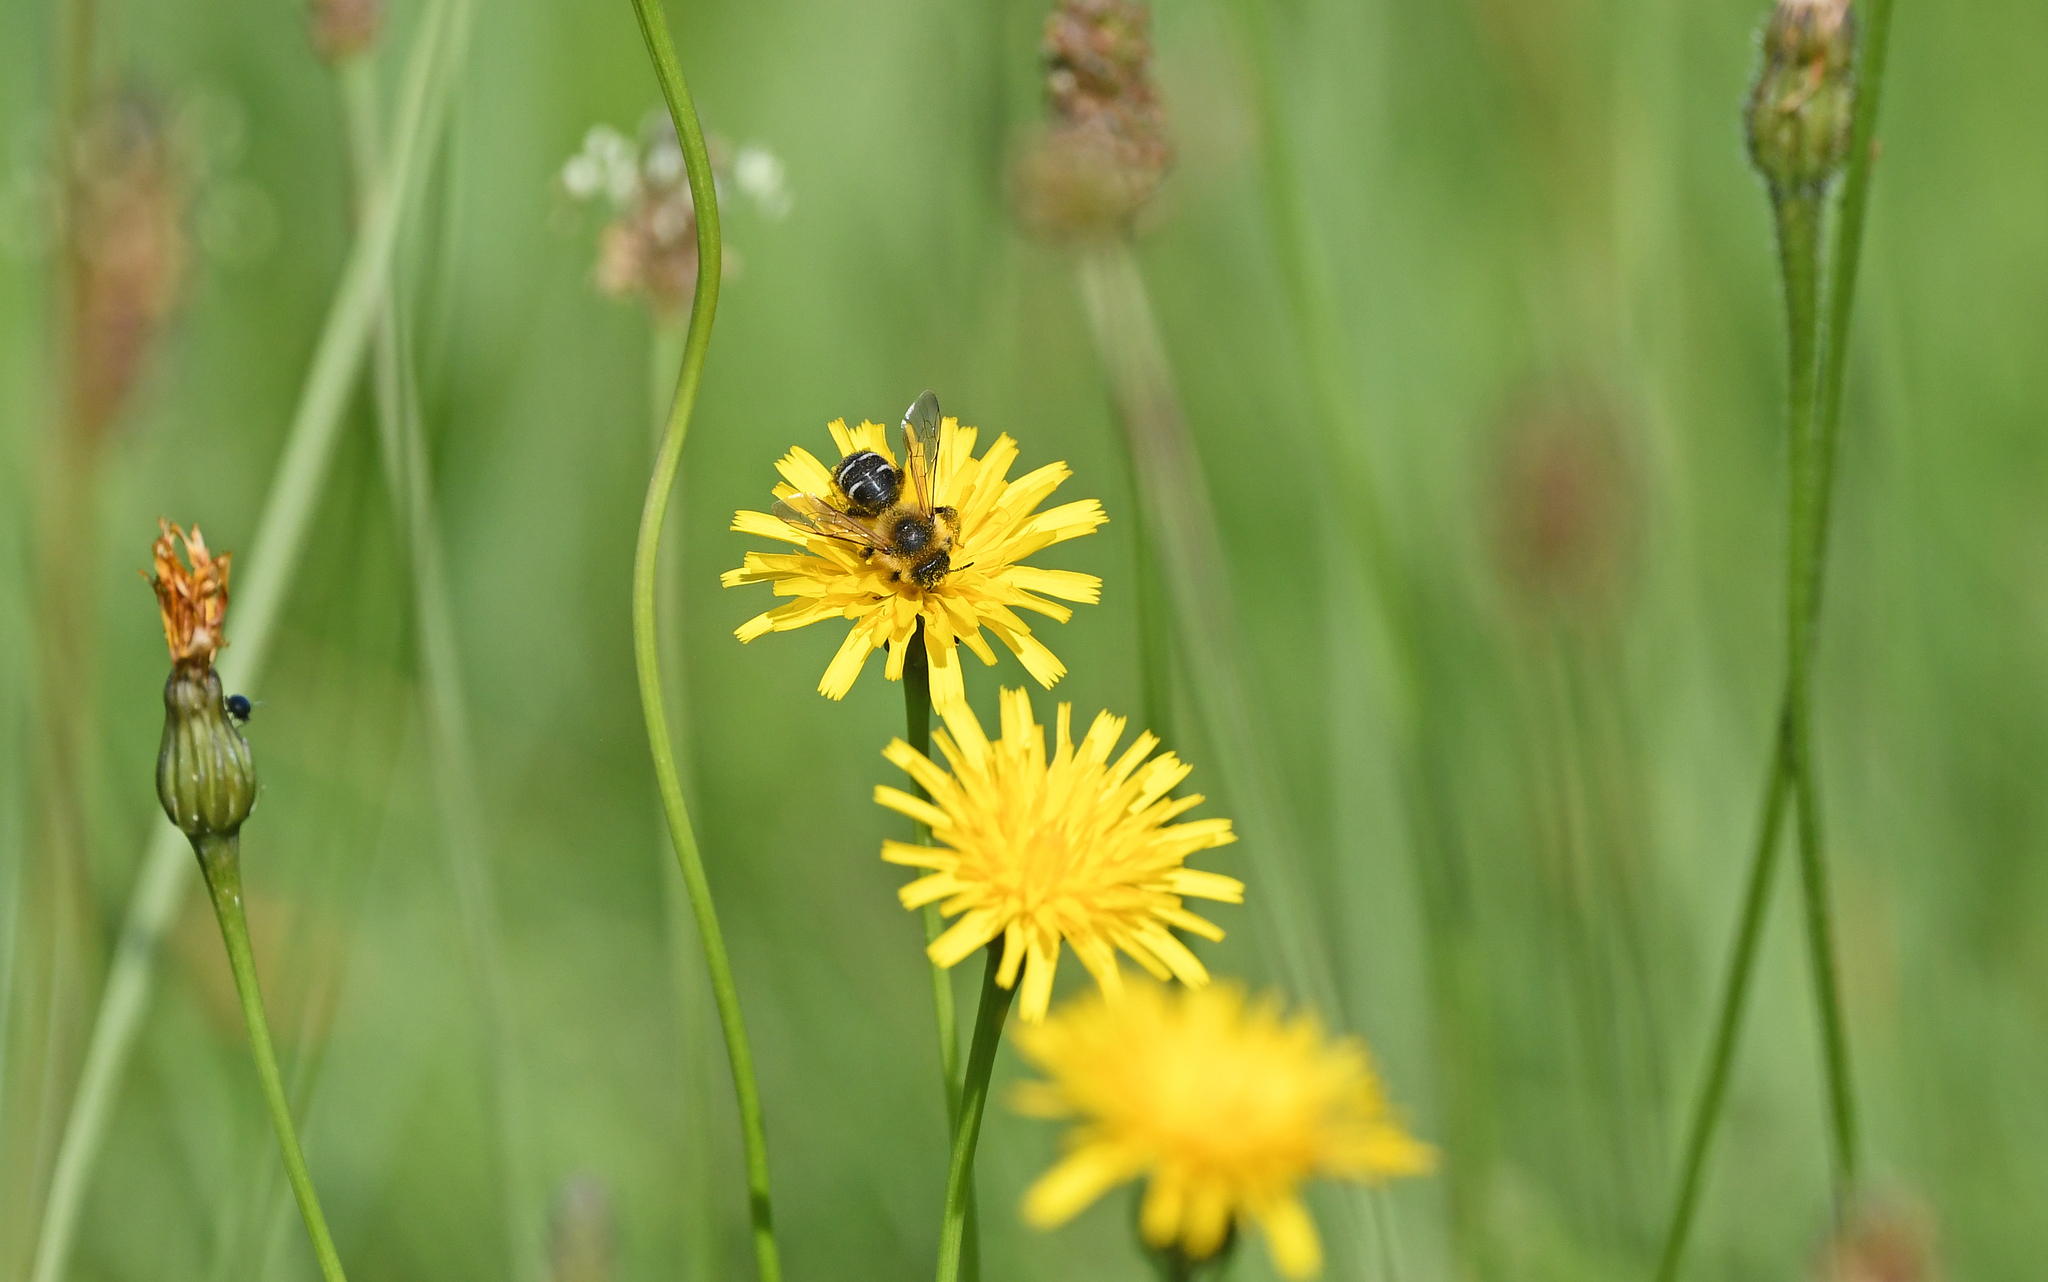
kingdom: Animalia
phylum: Arthropoda
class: Insecta
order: Hymenoptera
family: Melittidae
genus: Dasypoda
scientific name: Dasypoda hirtipes
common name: Pantaloon bee
